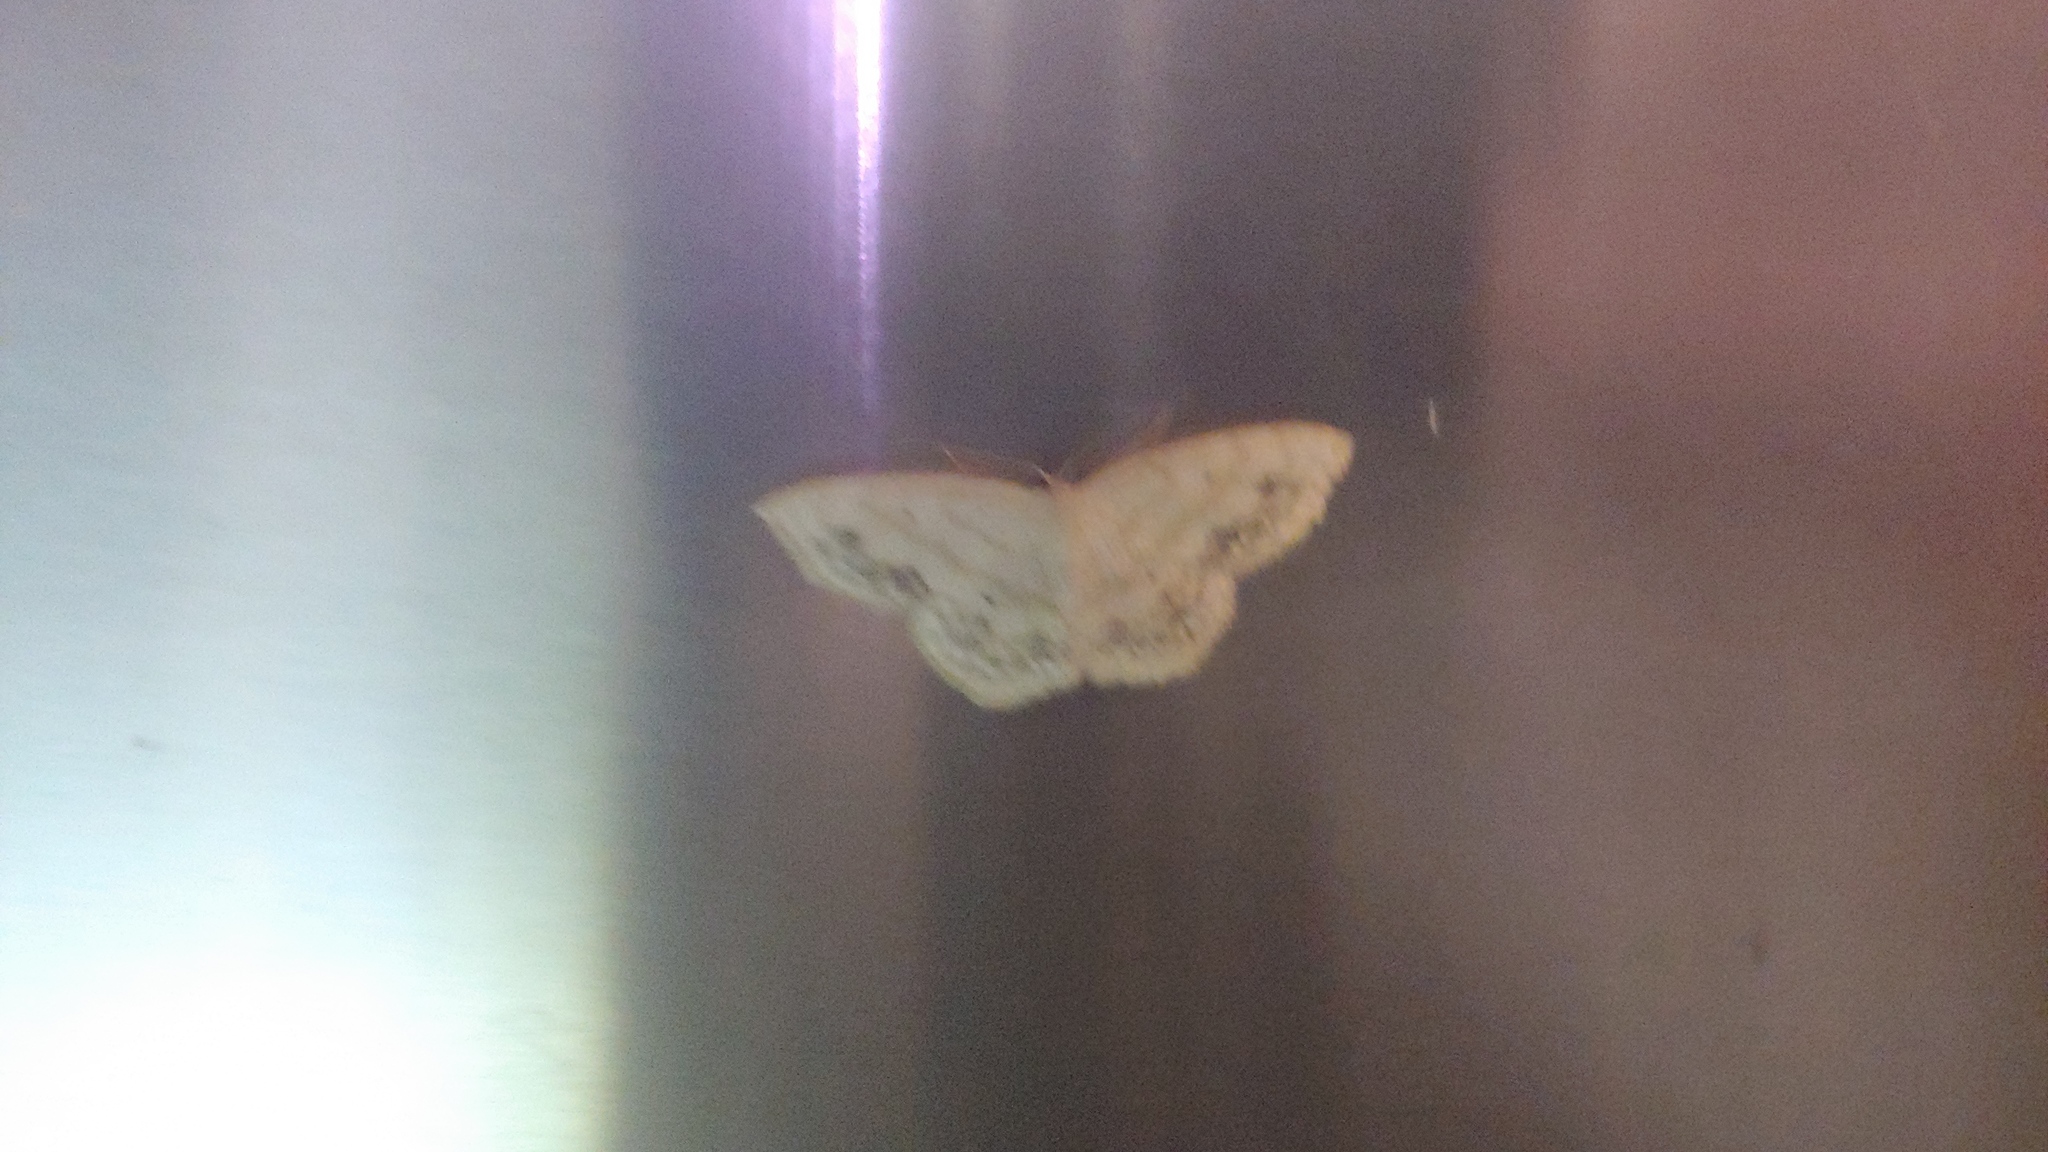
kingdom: Animalia
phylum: Arthropoda
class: Insecta
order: Lepidoptera
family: Geometridae
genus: Scopula
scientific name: Scopula limboundata
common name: Large lace border
